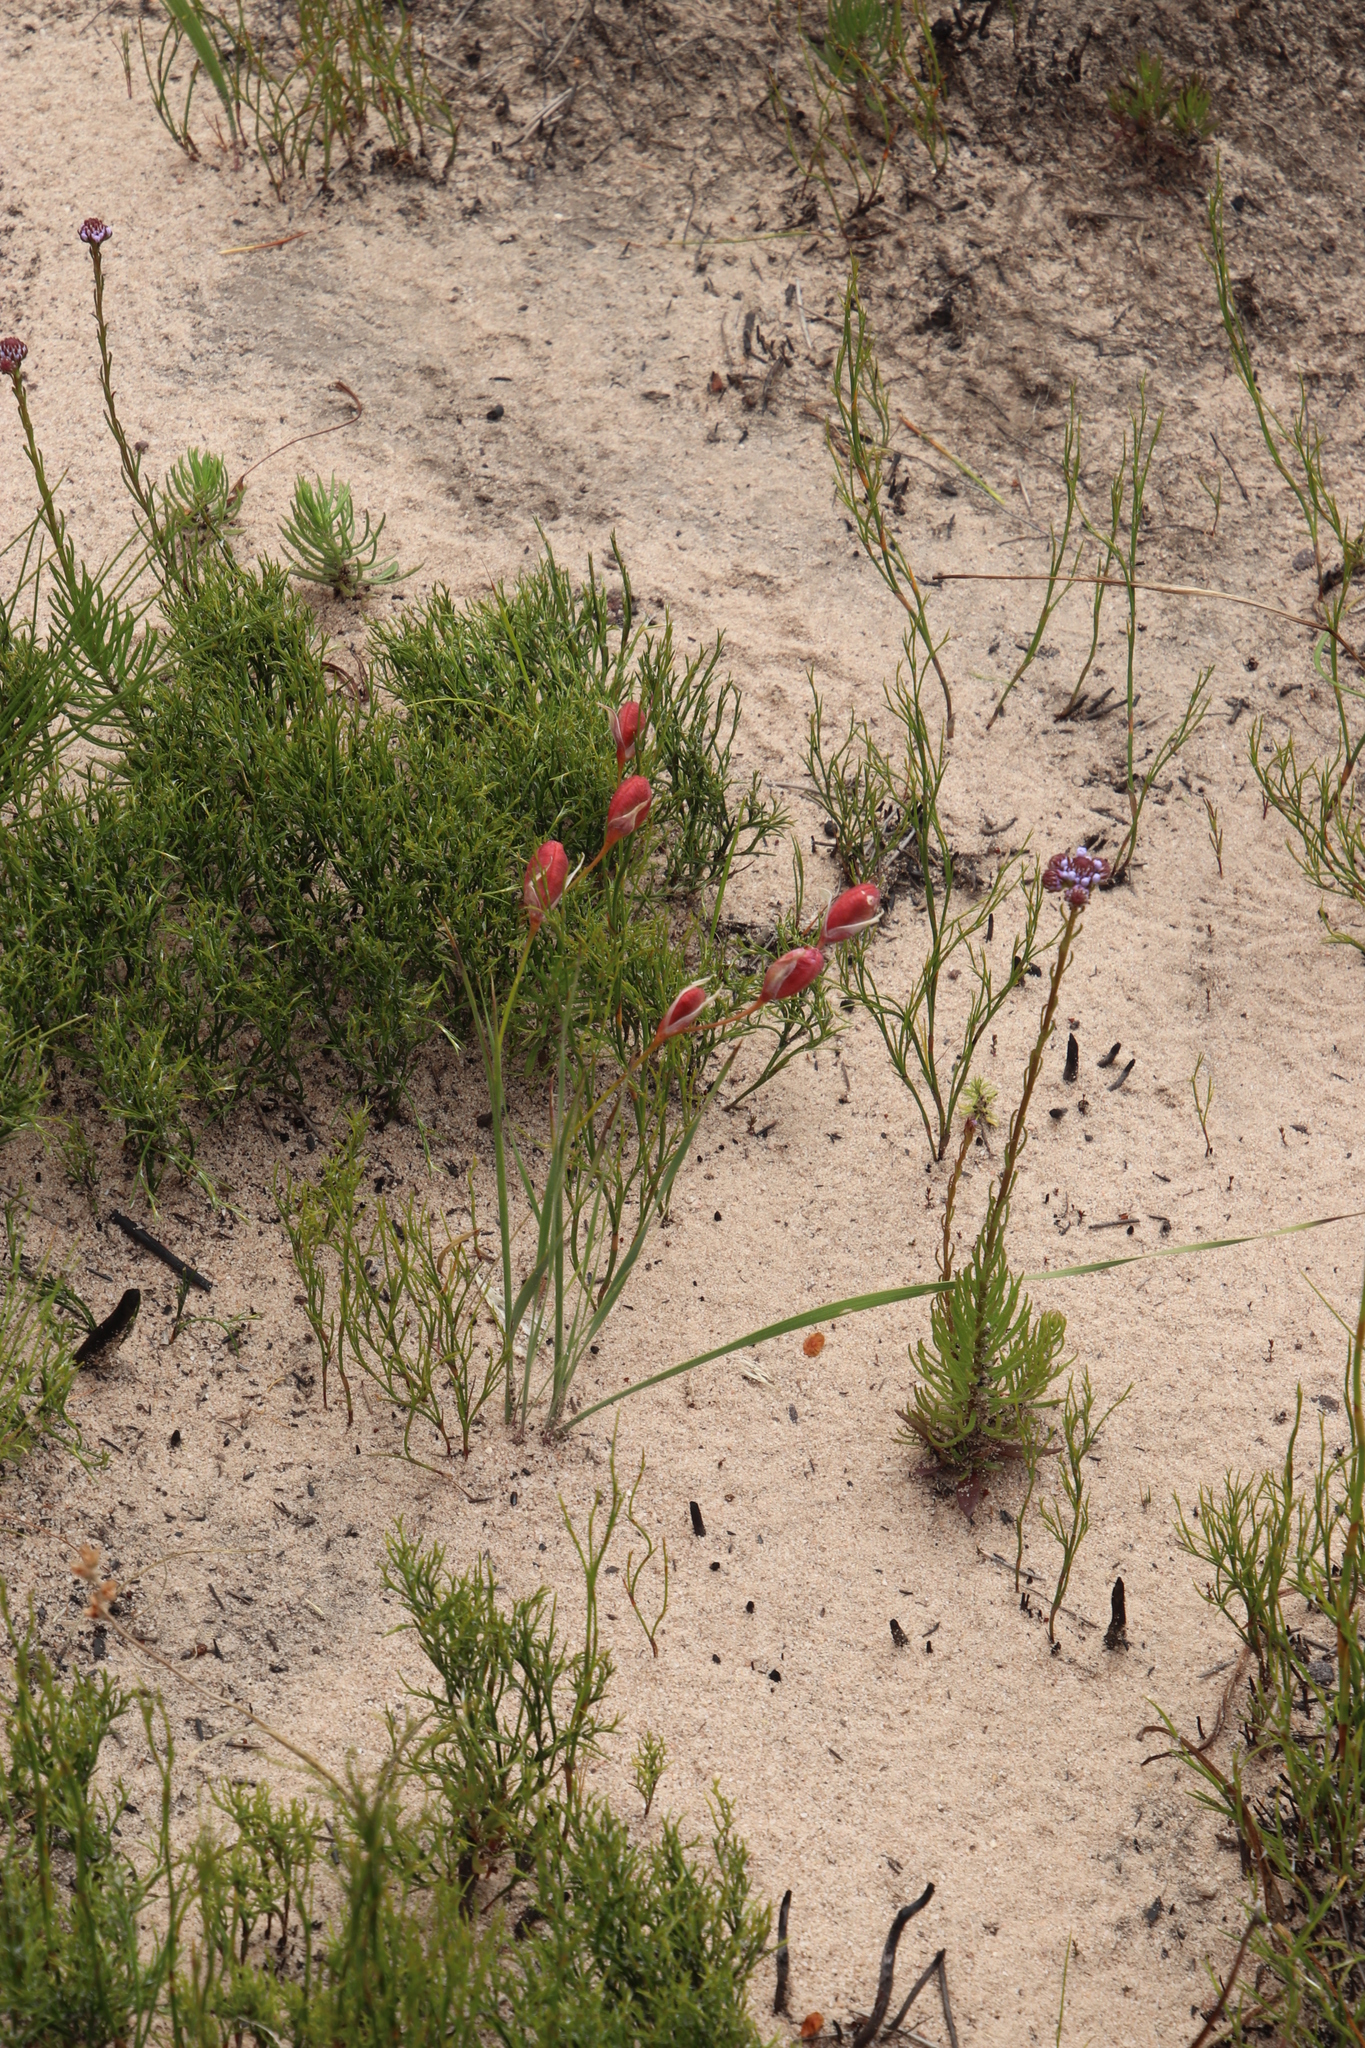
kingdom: Plantae
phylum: Tracheophyta
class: Liliopsida
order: Asparagales
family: Iridaceae
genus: Gladiolus
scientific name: Gladiolus hirsutus
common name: Small pink afrikaner
